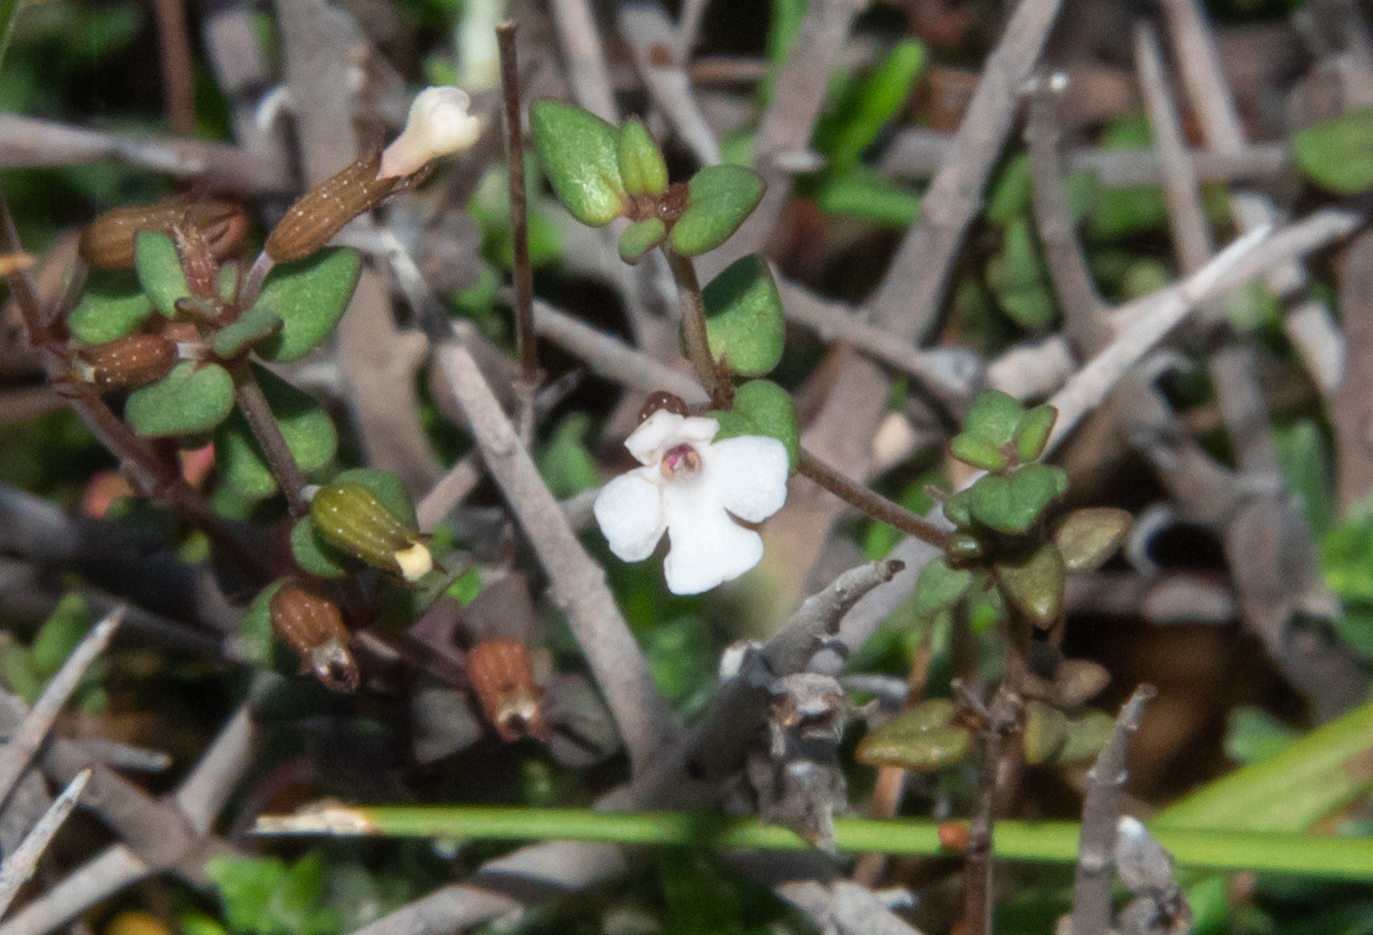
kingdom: Plantae
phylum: Tracheophyta
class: Magnoliopsida
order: Lamiales
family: Lamiaceae
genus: Micromeria
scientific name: Micromeria filiformis
